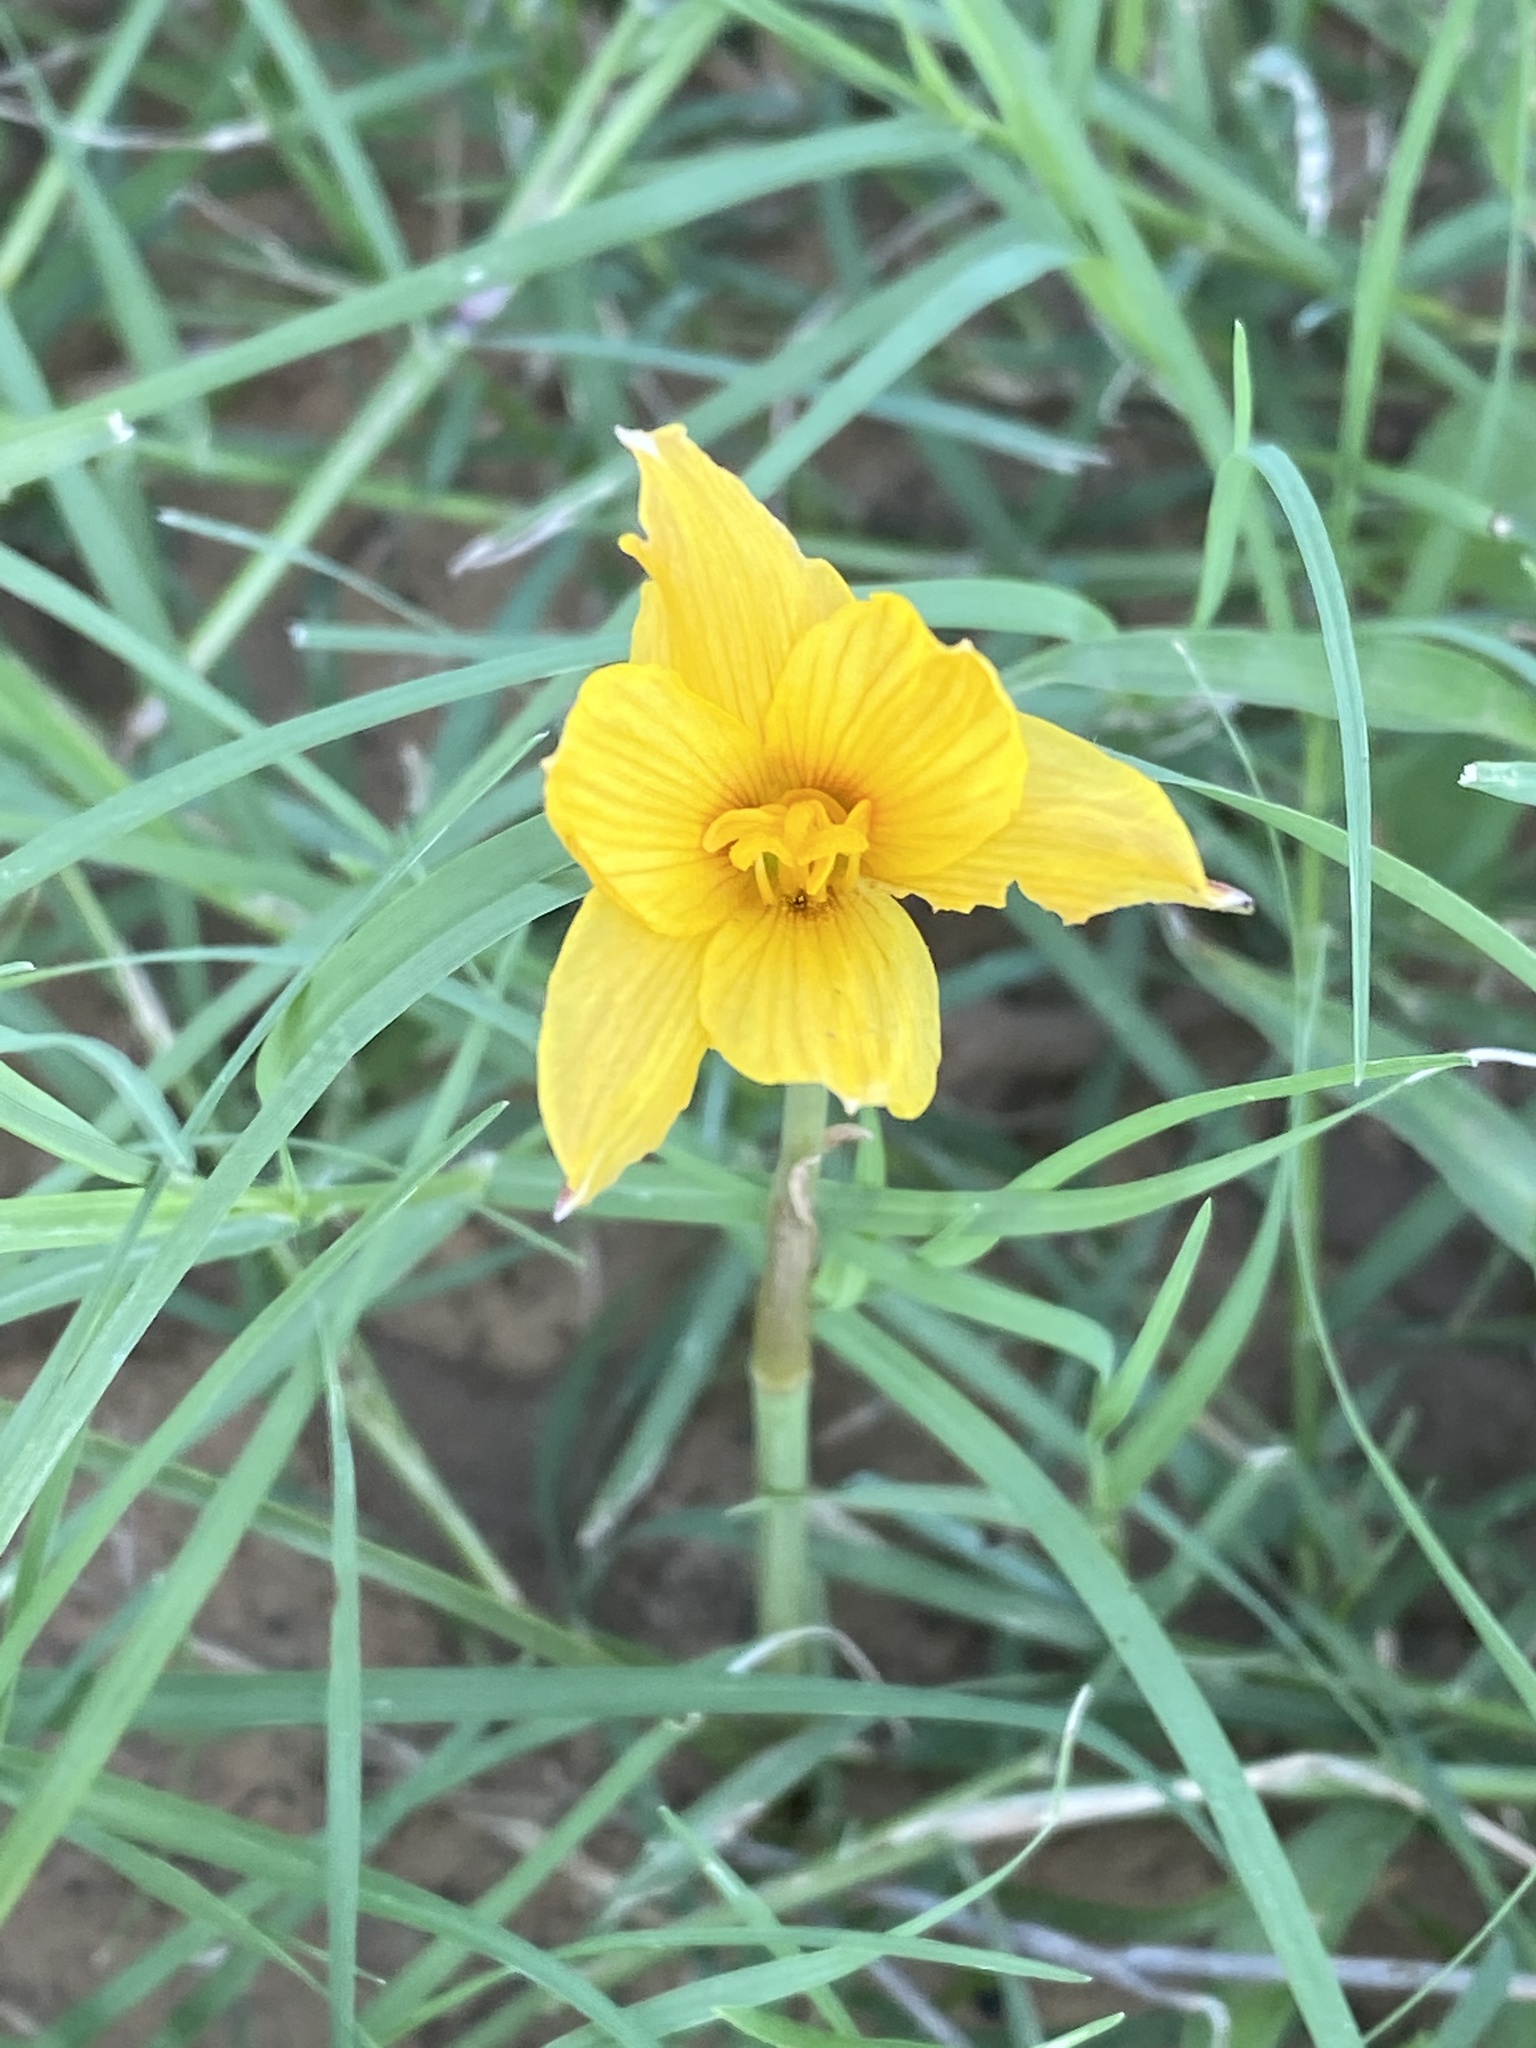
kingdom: Plantae
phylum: Tracheophyta
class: Liliopsida
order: Asparagales
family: Amaryllidaceae
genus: Zephyranthes
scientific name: Zephyranthes tubispatha
